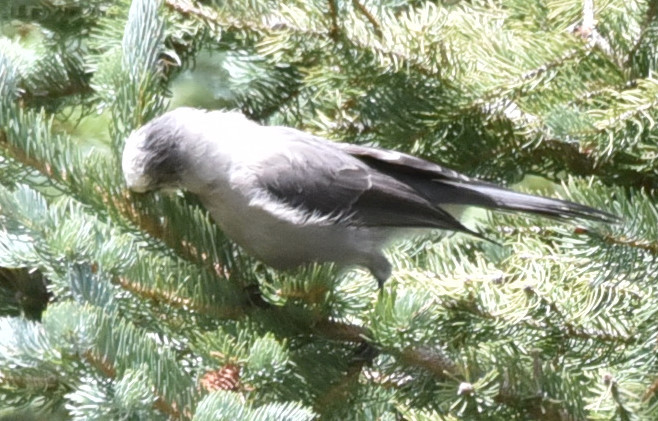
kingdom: Animalia
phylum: Chordata
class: Aves
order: Passeriformes
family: Corvidae
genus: Perisoreus
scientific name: Perisoreus canadensis
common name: Gray jay
